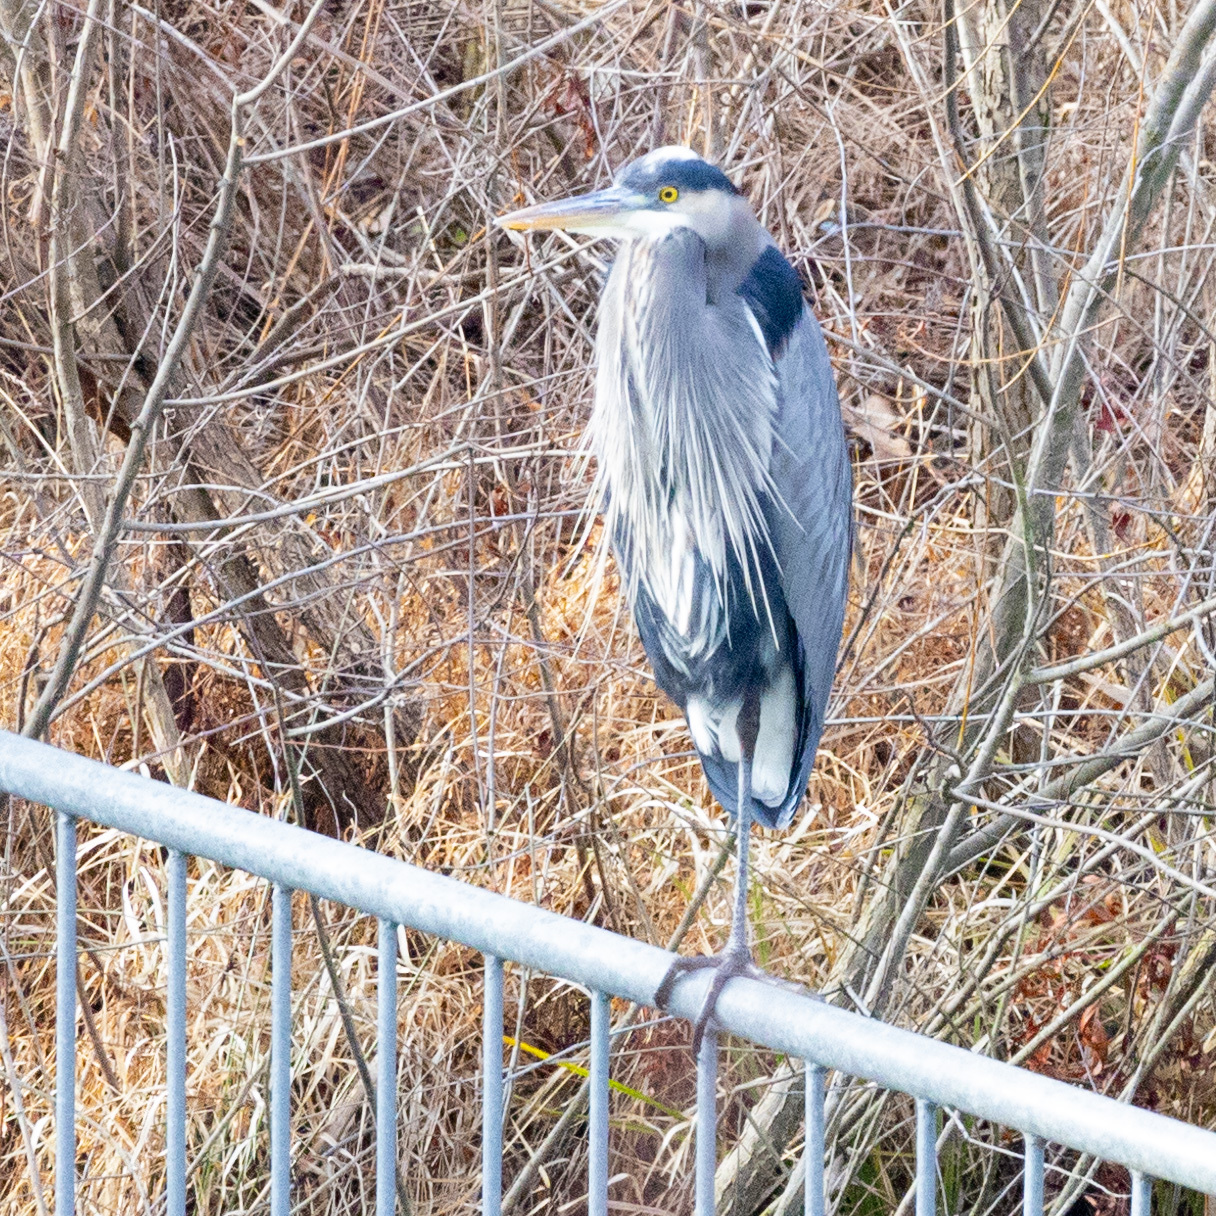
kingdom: Animalia
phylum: Chordata
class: Aves
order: Pelecaniformes
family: Ardeidae
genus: Ardea
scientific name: Ardea herodias
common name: Great blue heron
